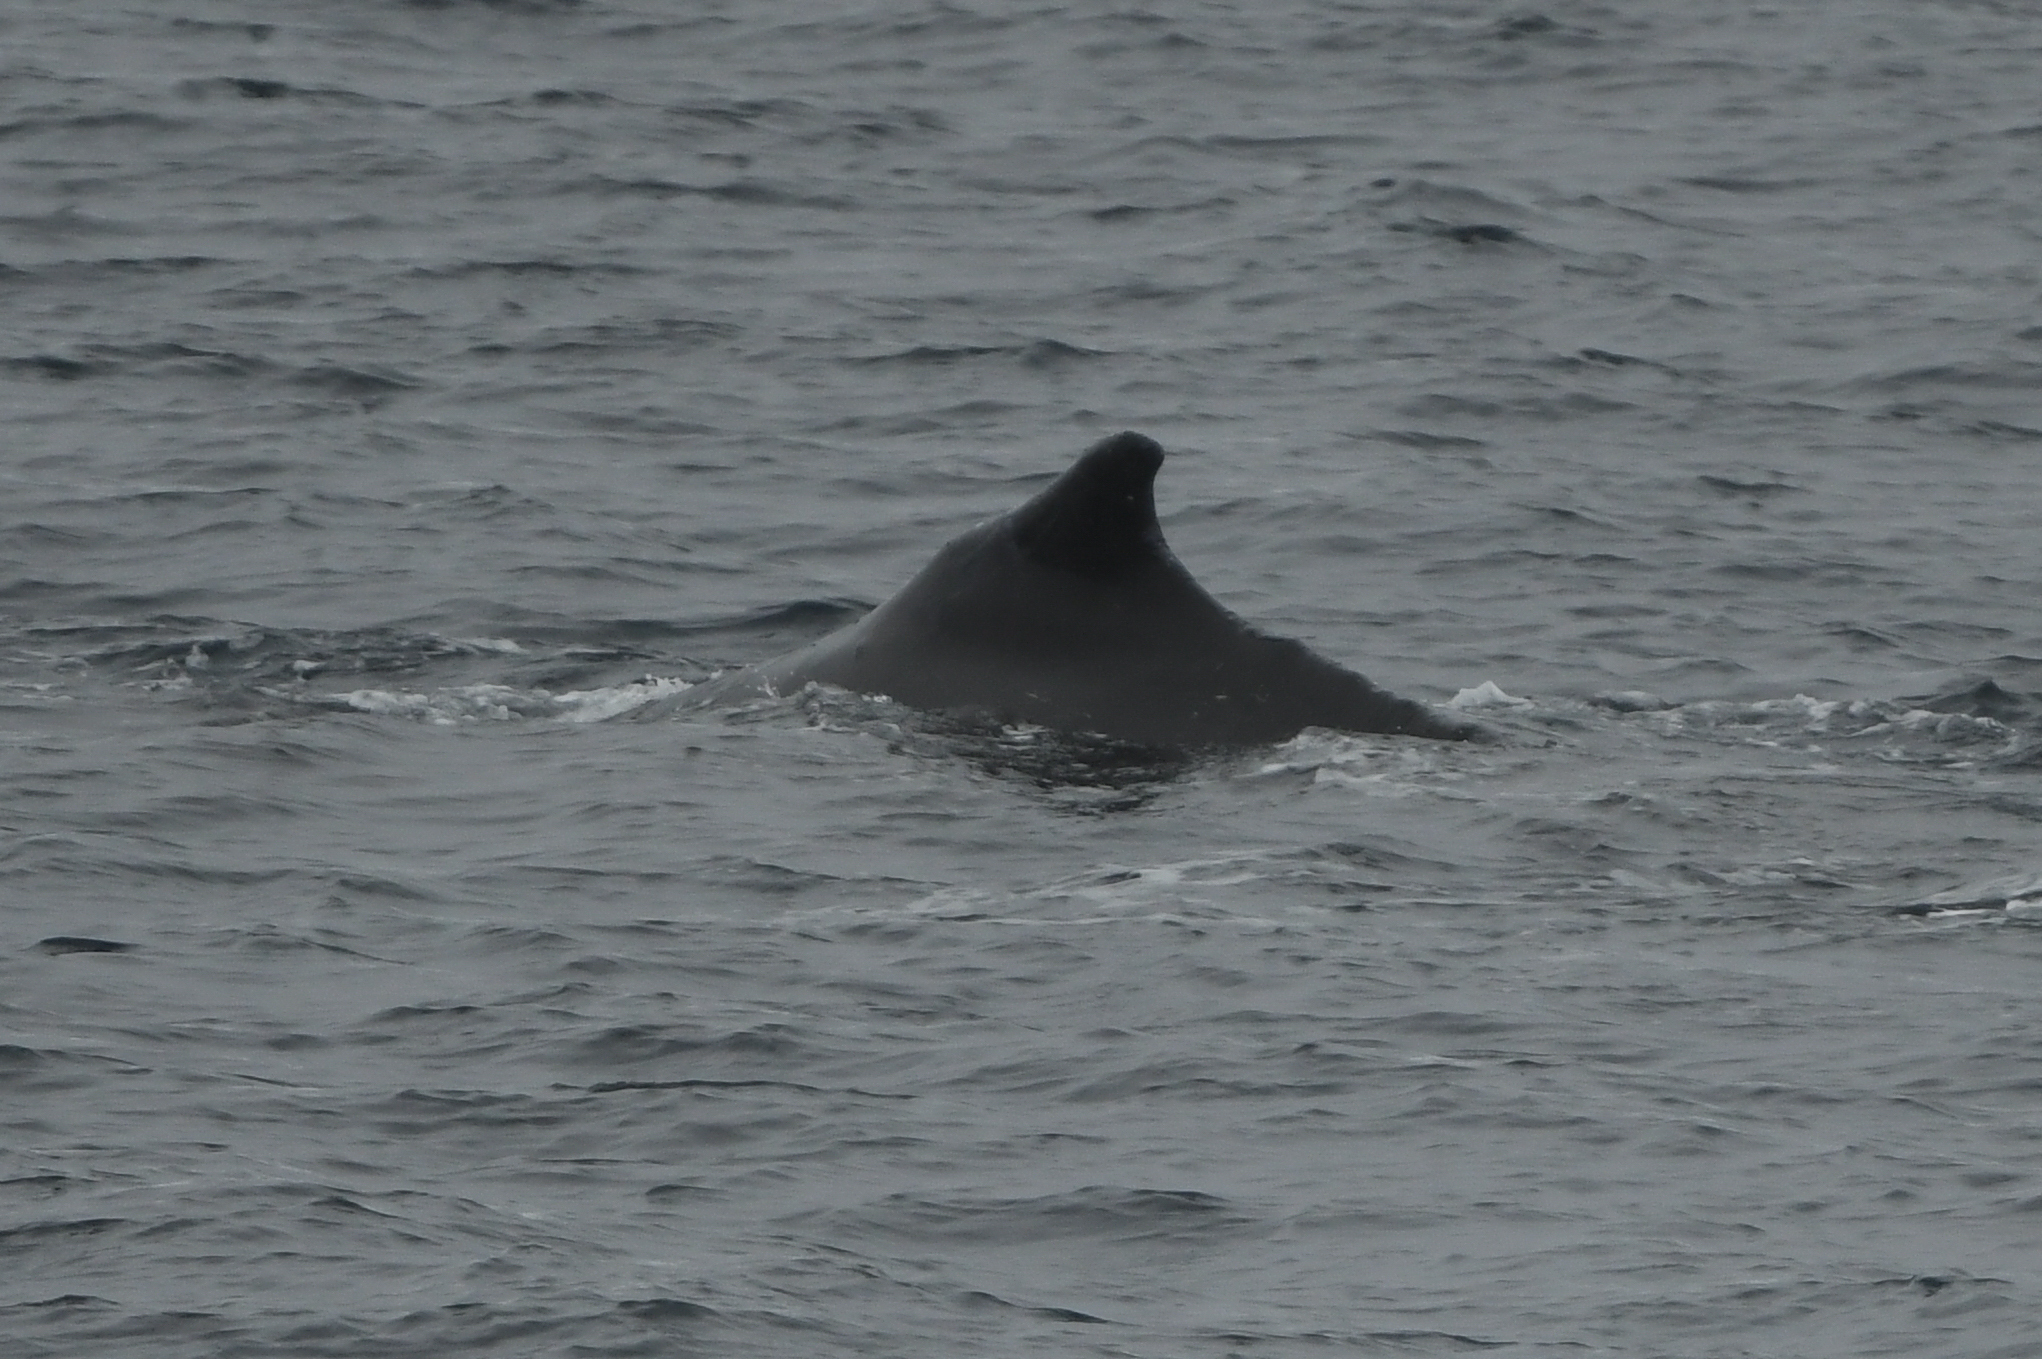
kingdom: Animalia
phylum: Chordata
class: Mammalia
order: Cetacea
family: Balaenopteridae
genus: Megaptera
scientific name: Megaptera novaeangliae
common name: Humpback whale
